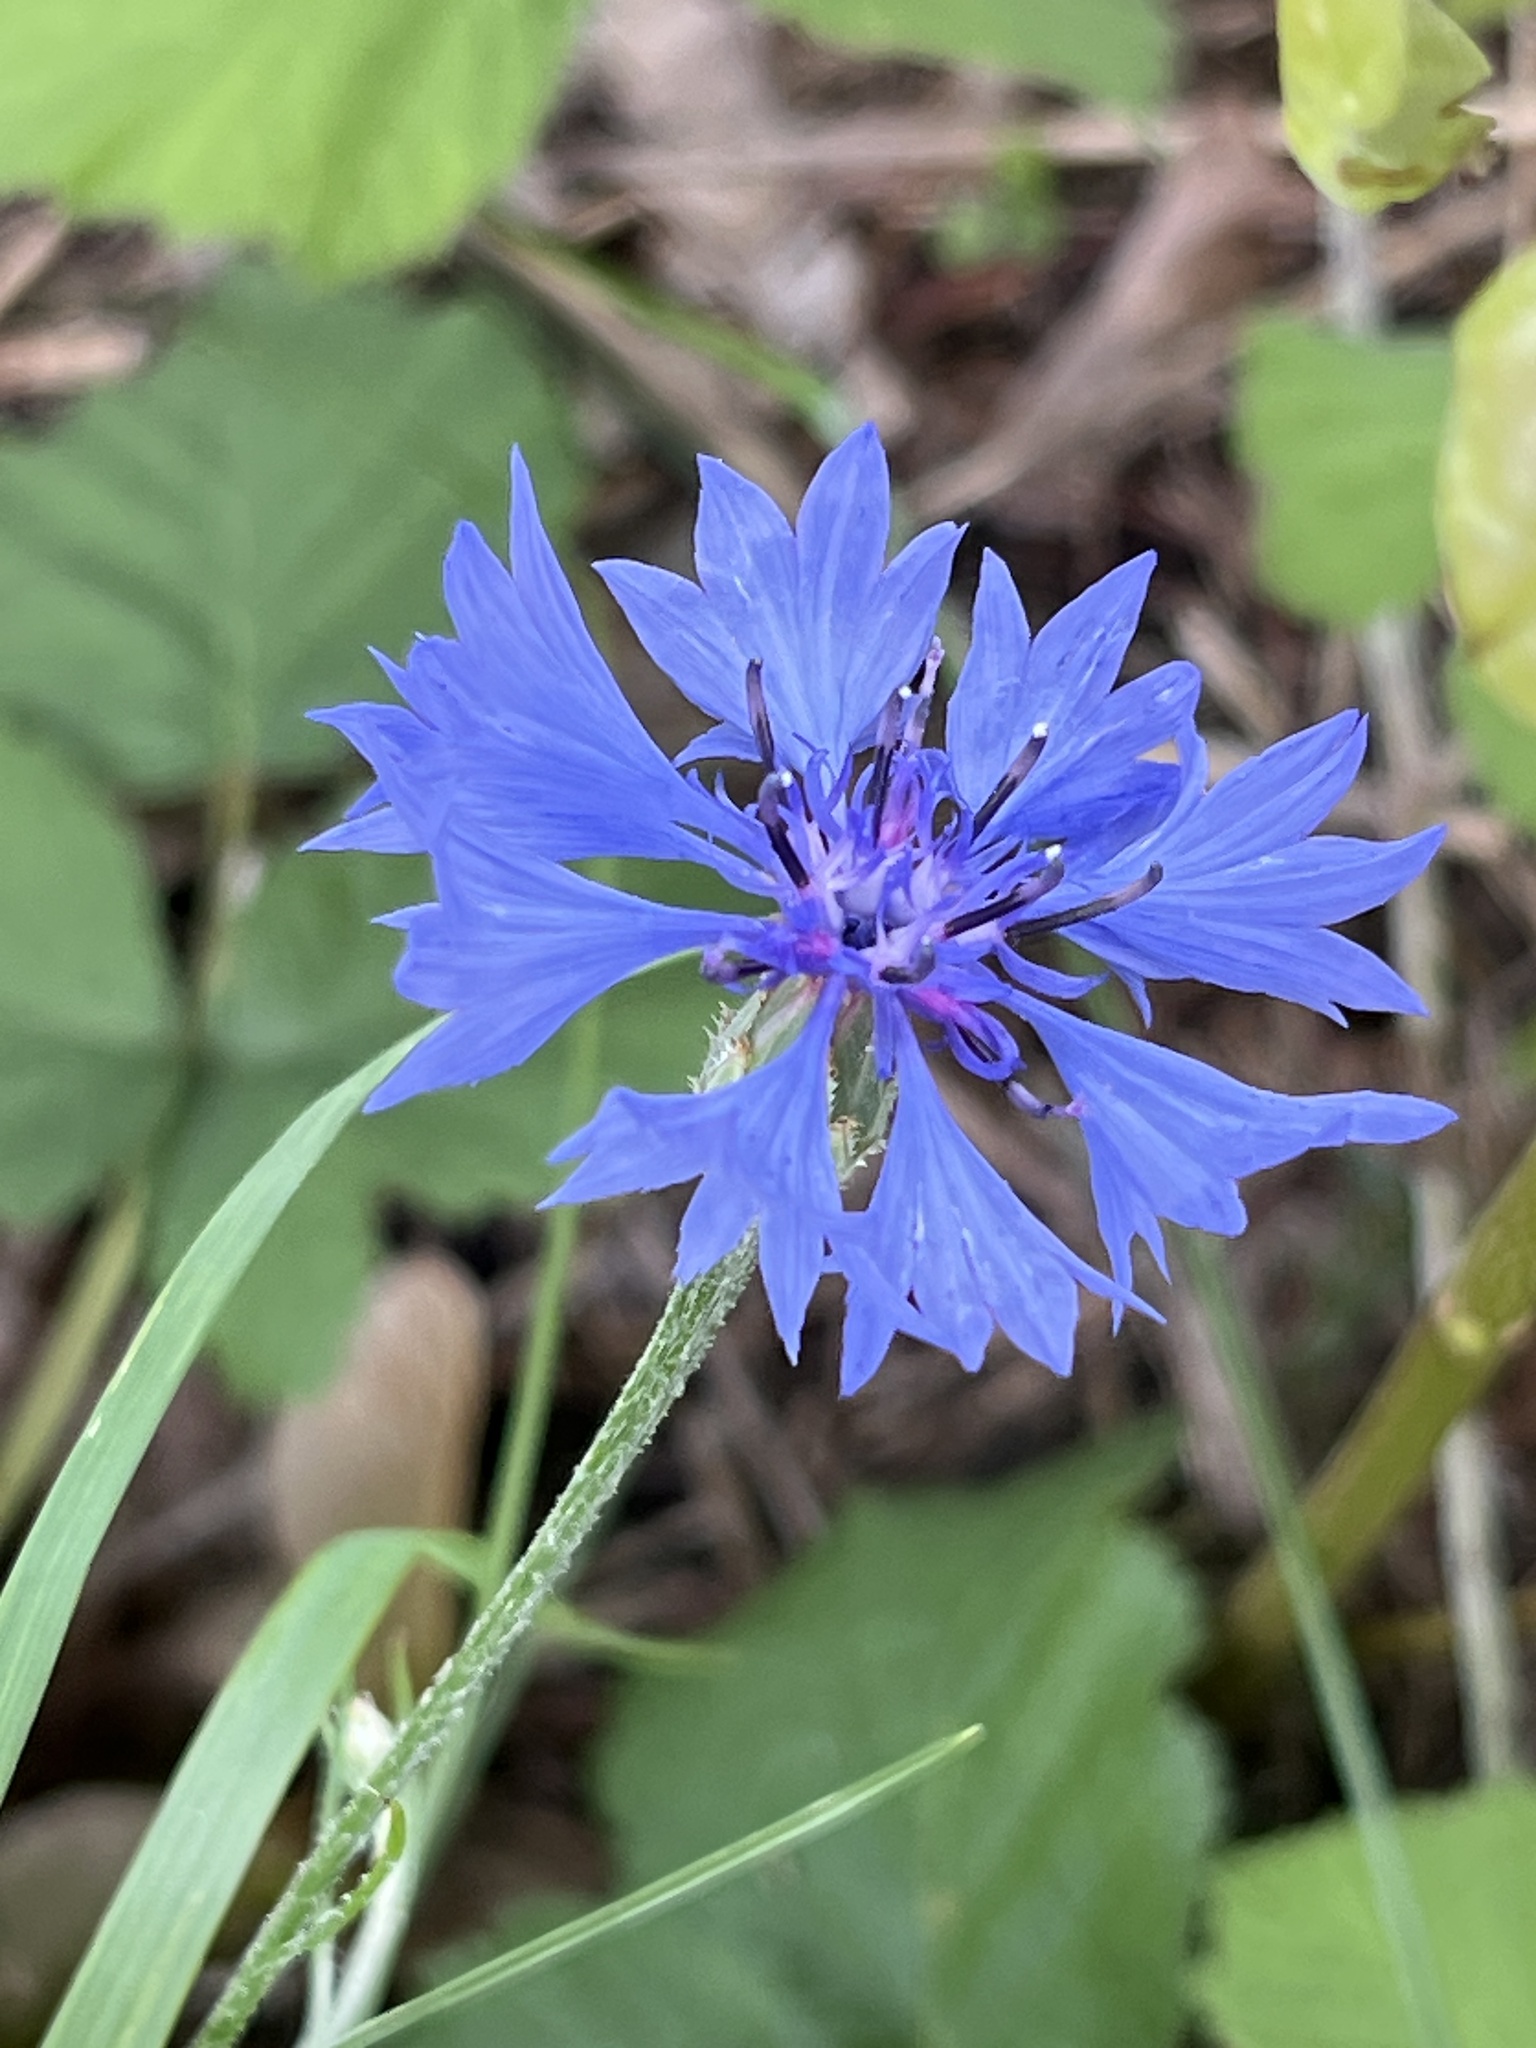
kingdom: Plantae
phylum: Tracheophyta
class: Magnoliopsida
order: Asterales
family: Asteraceae
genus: Centaurea
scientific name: Centaurea cyanus
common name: Cornflower
